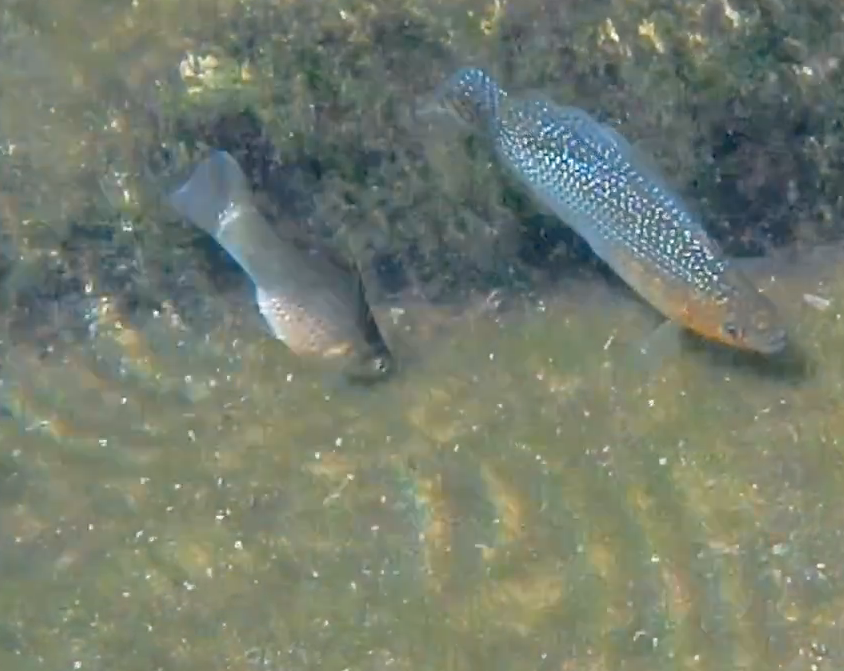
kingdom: Animalia
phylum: Chordata
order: Cyprinodontiformes
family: Poeciliidae
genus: Poecilia
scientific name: Poecilia velifera
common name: Sail-fin molly
